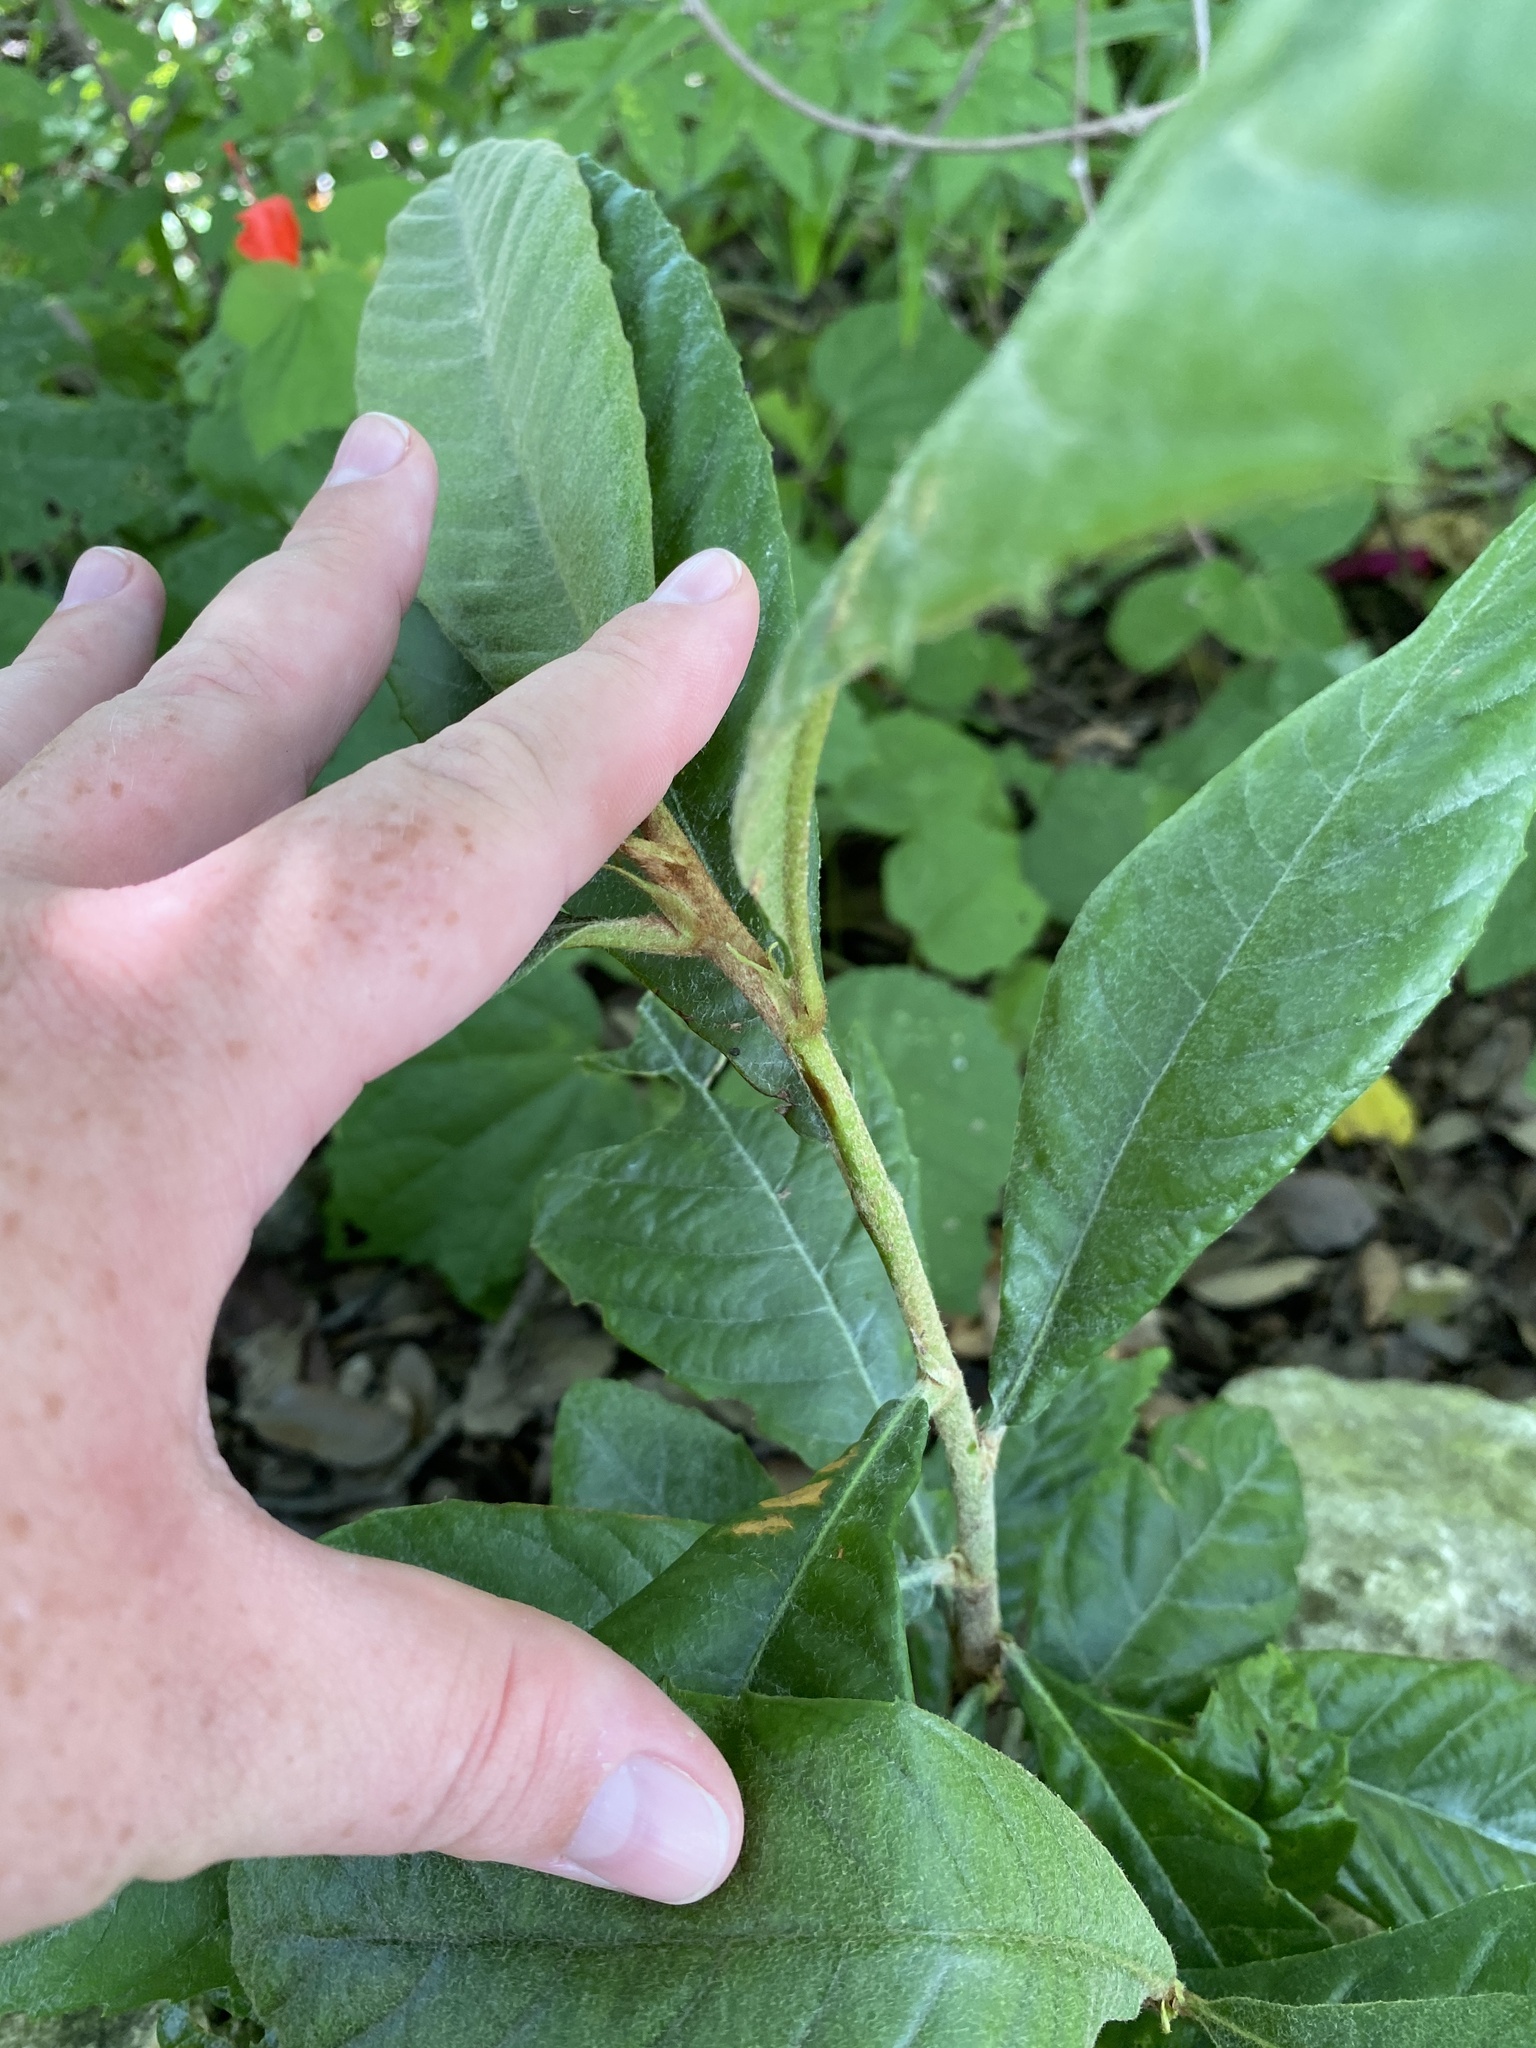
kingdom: Plantae
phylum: Tracheophyta
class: Magnoliopsida
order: Rosales
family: Rosaceae
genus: Rhaphiolepis
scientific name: Rhaphiolepis bibas
